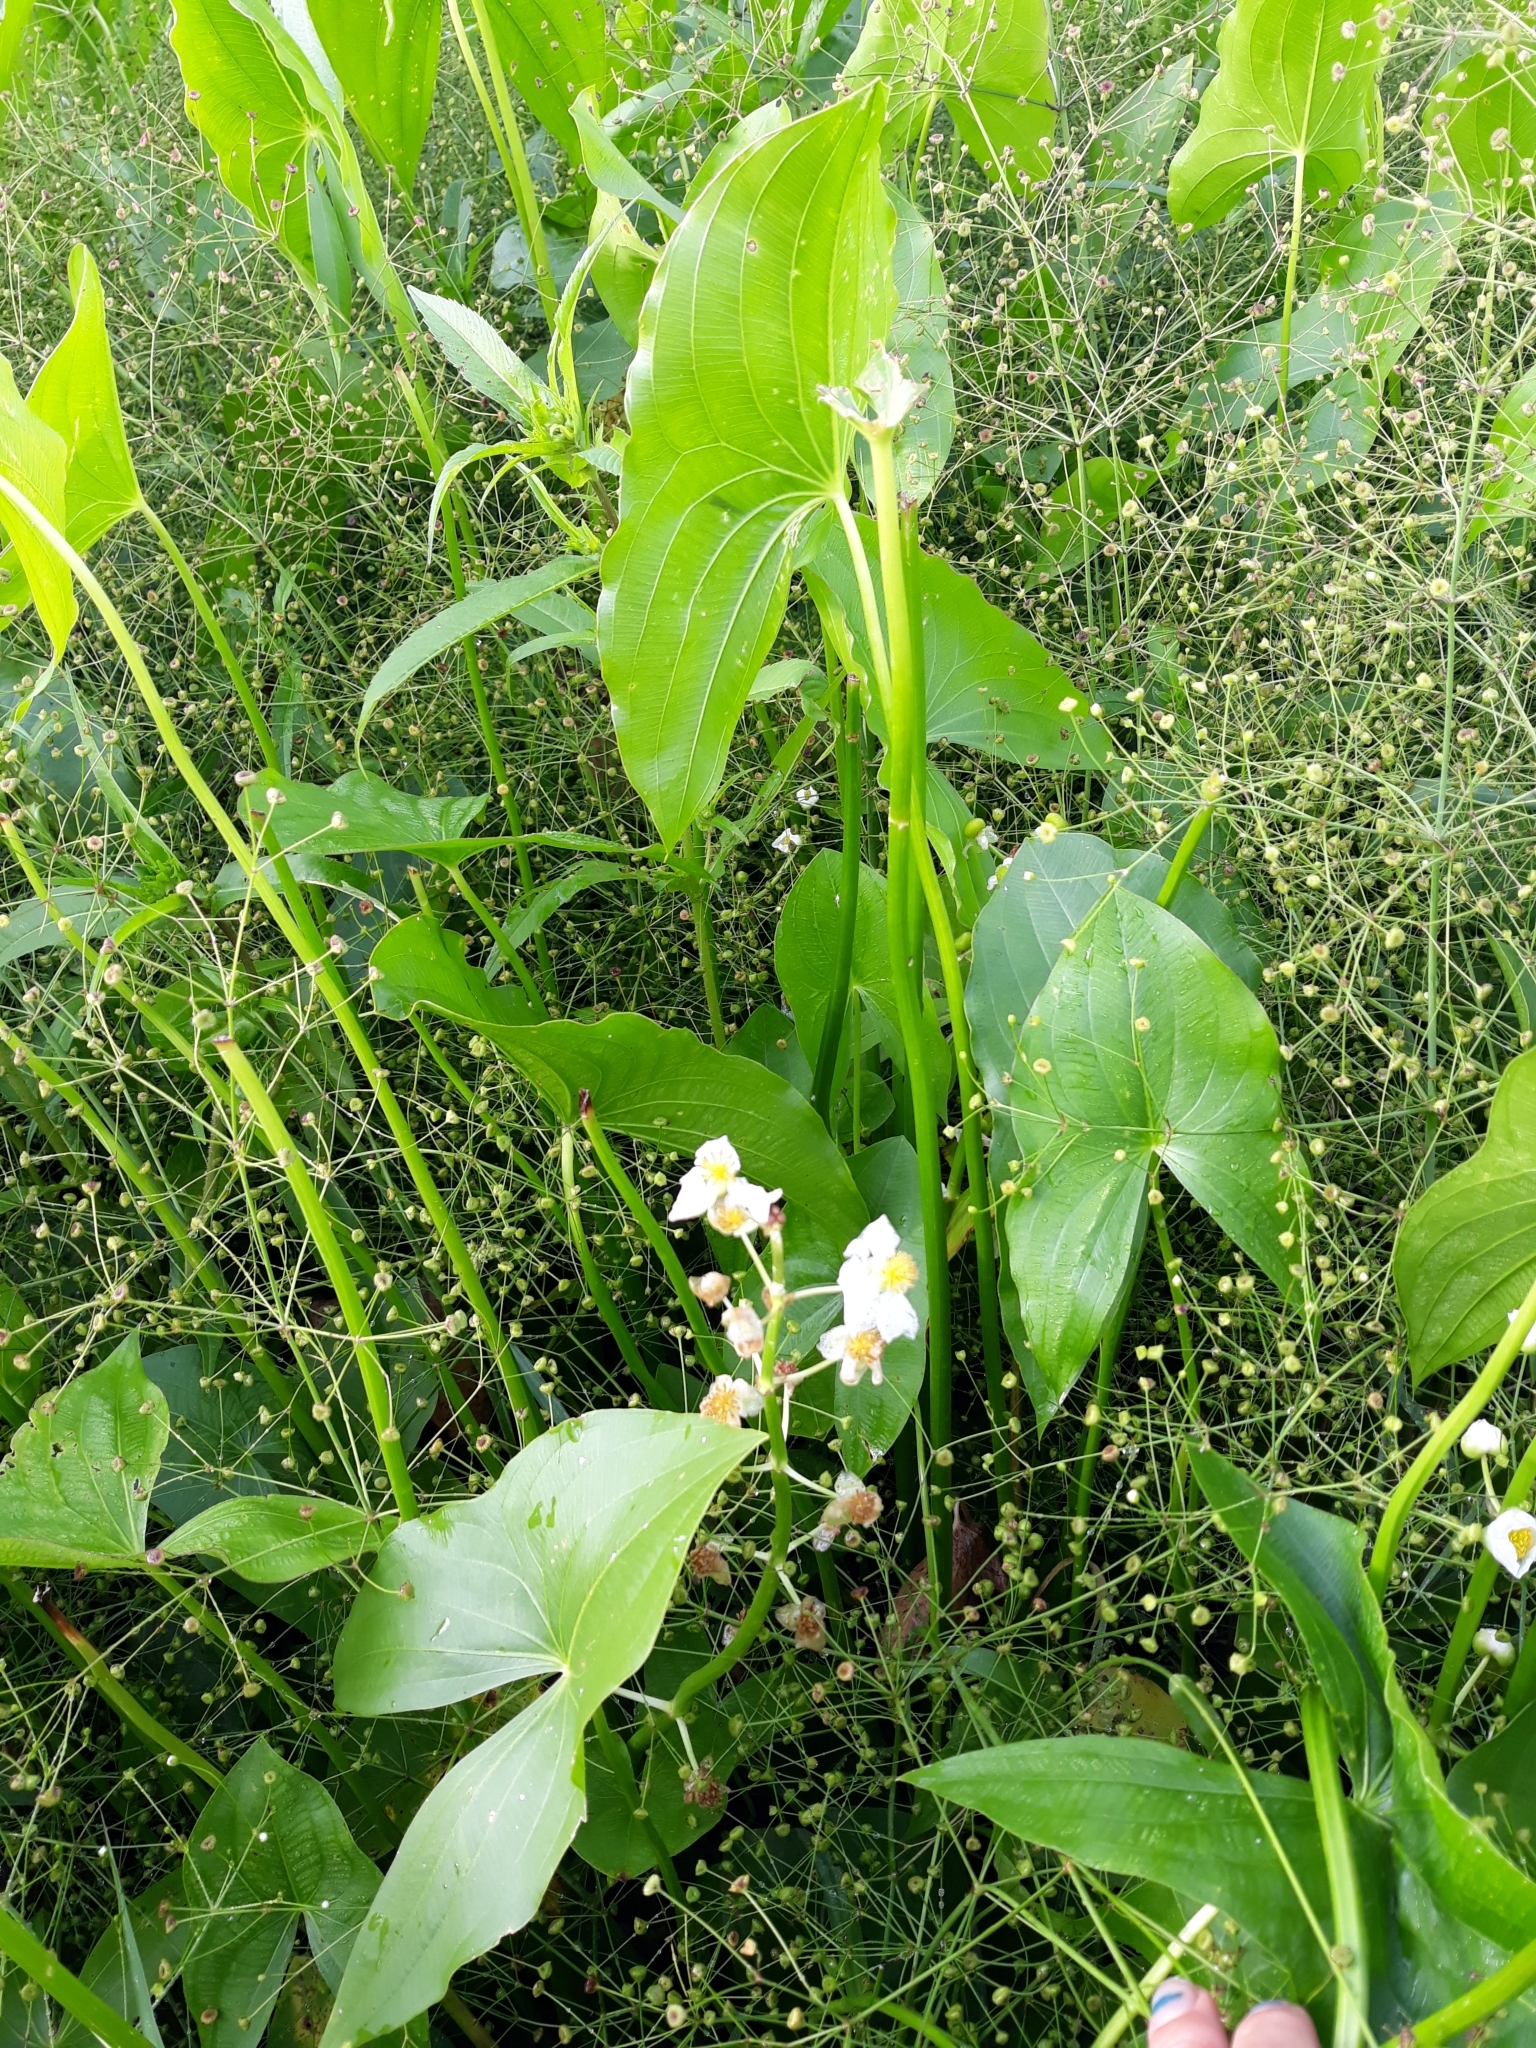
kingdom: Plantae
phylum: Tracheophyta
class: Liliopsida
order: Alismatales
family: Alismataceae
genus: Sagittaria
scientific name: Sagittaria latifolia
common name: Duck-potato
